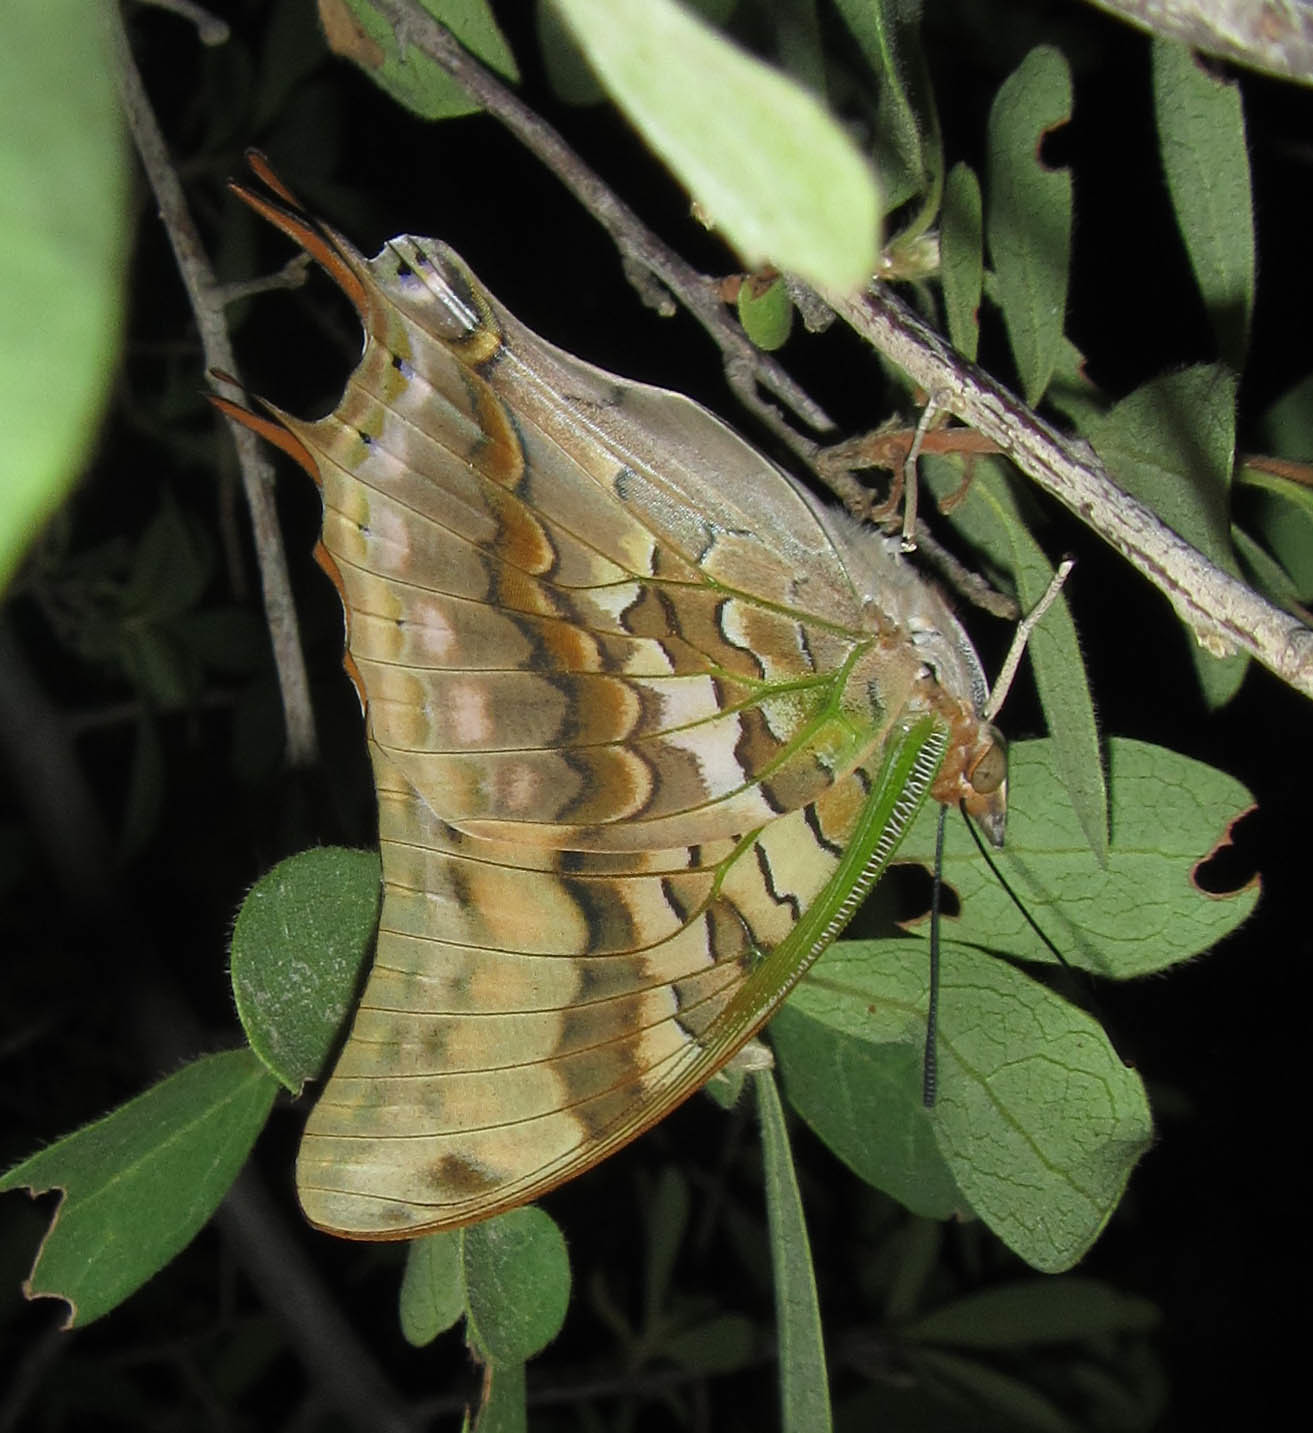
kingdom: Animalia
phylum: Arthropoda
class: Insecta
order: Lepidoptera
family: Nymphalidae
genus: Charaxes
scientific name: Charaxes candiope
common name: Green-veined charaxes
